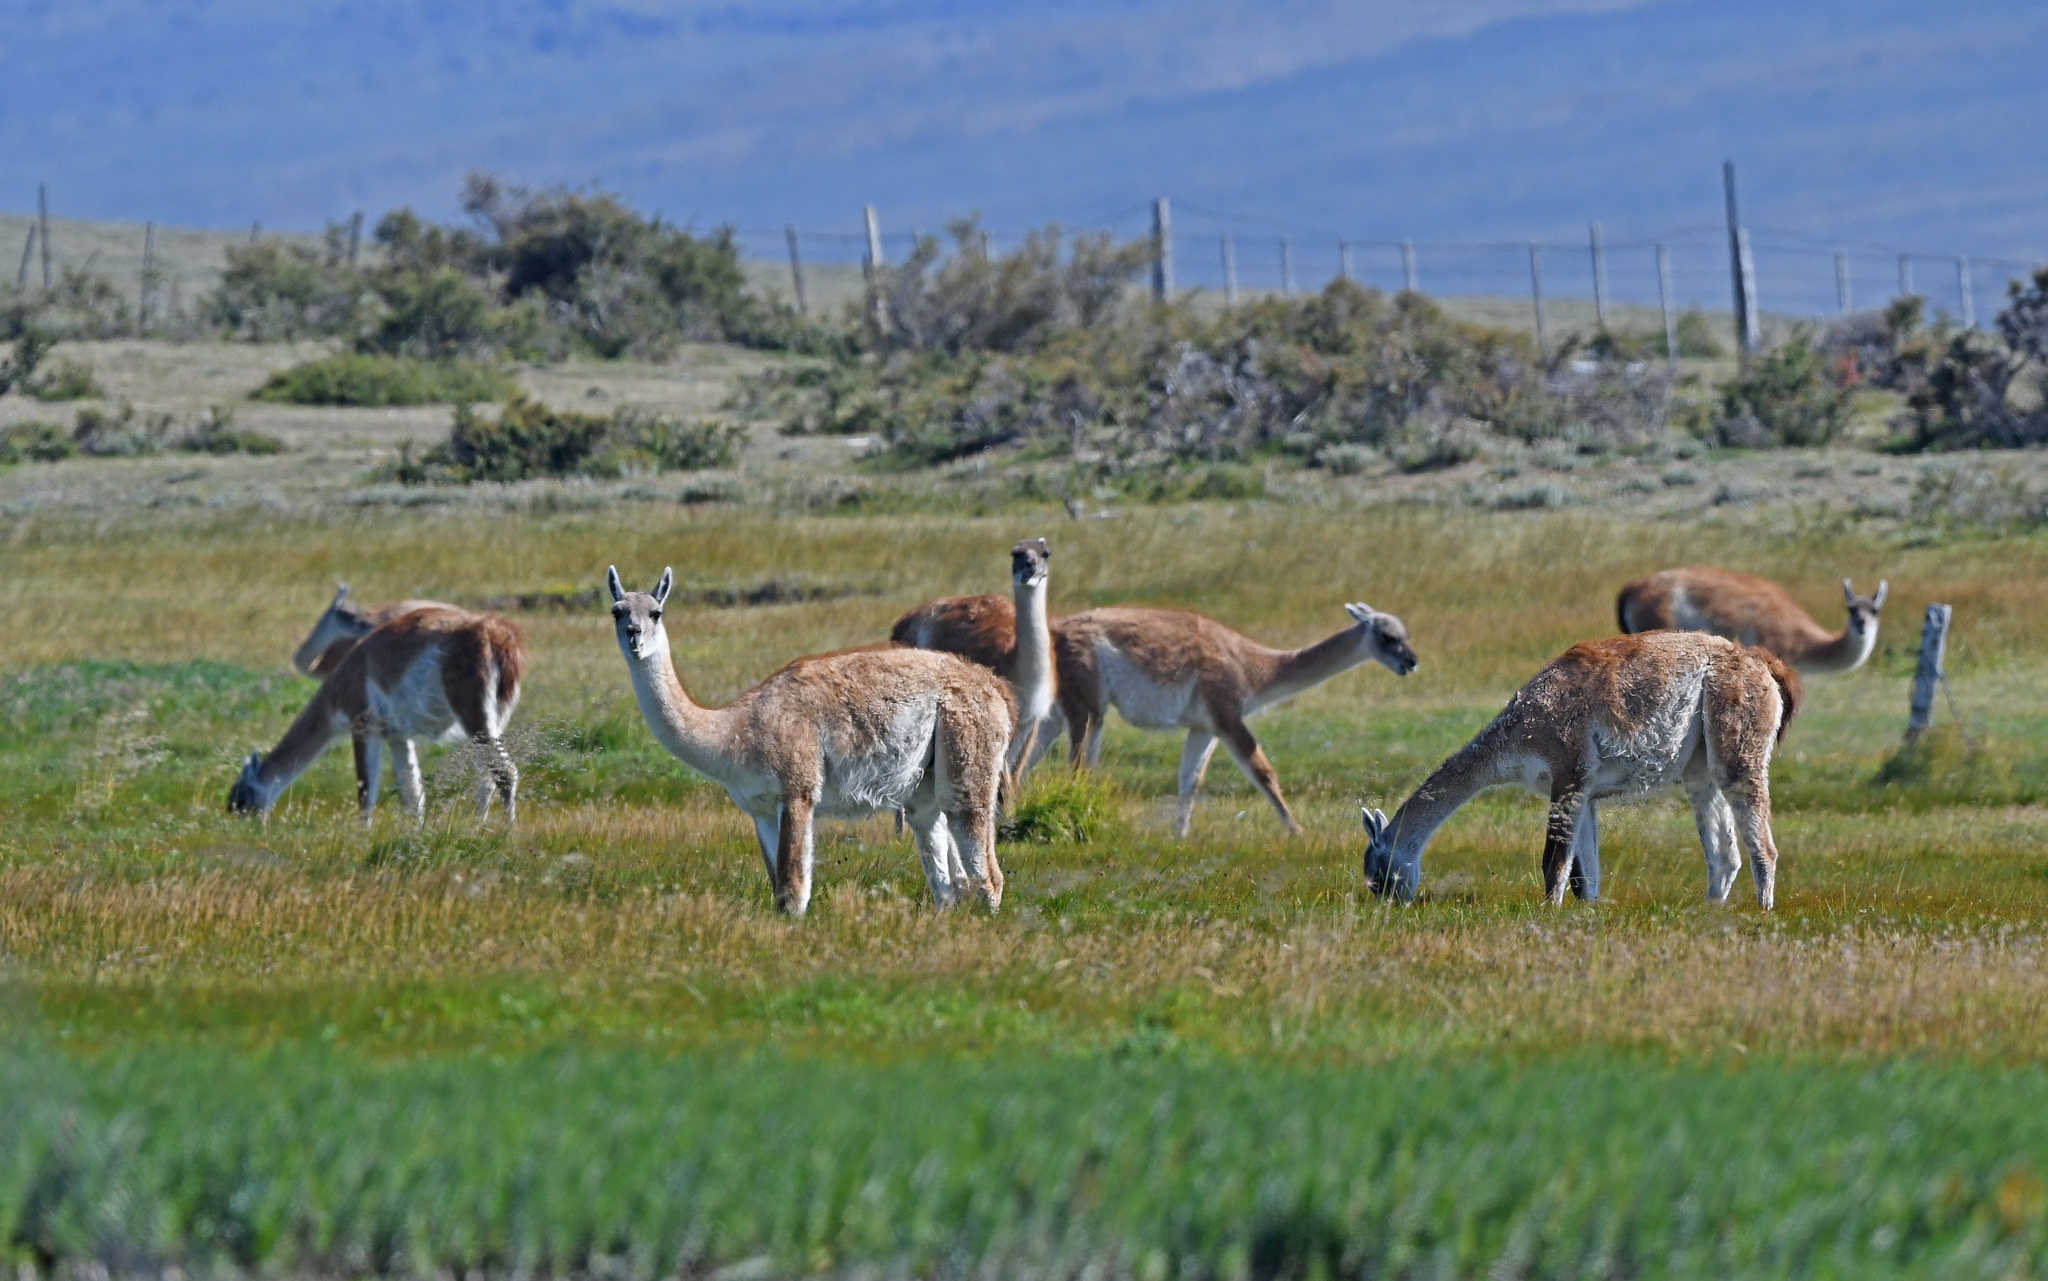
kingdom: Animalia
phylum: Chordata
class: Mammalia
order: Artiodactyla
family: Camelidae
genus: Lama
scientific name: Lama glama
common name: Llama
